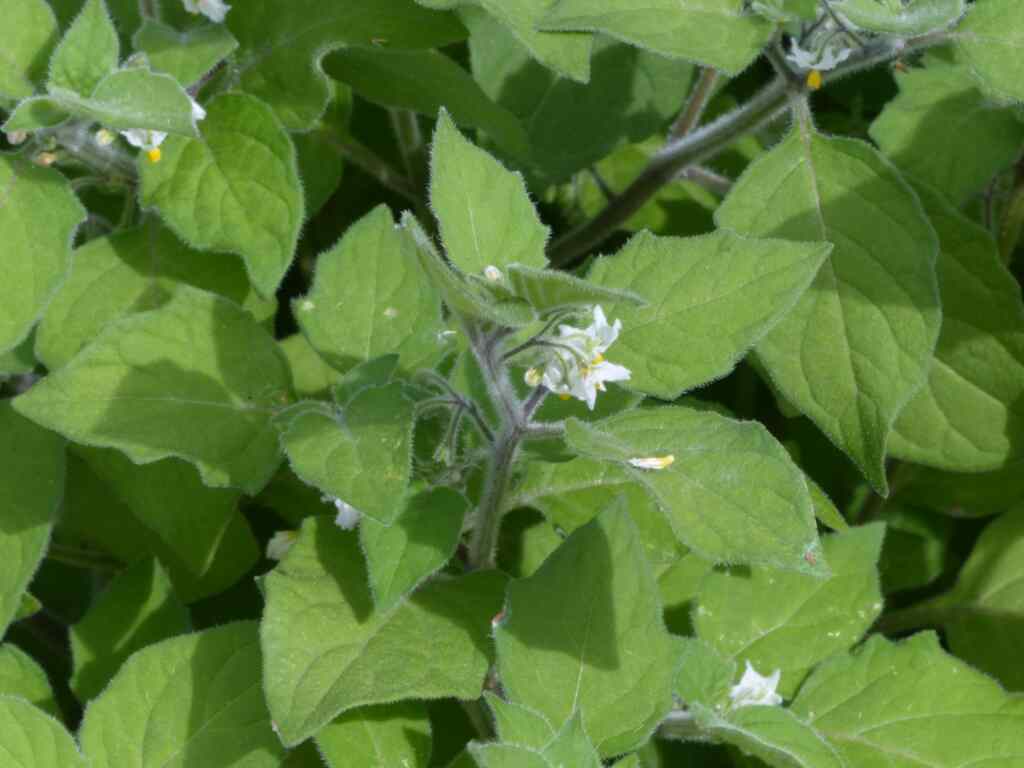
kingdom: Plantae
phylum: Tracheophyta
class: Magnoliopsida
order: Solanales
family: Solanaceae
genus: Solanum
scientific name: Solanum nigrum
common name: Black nightshade
